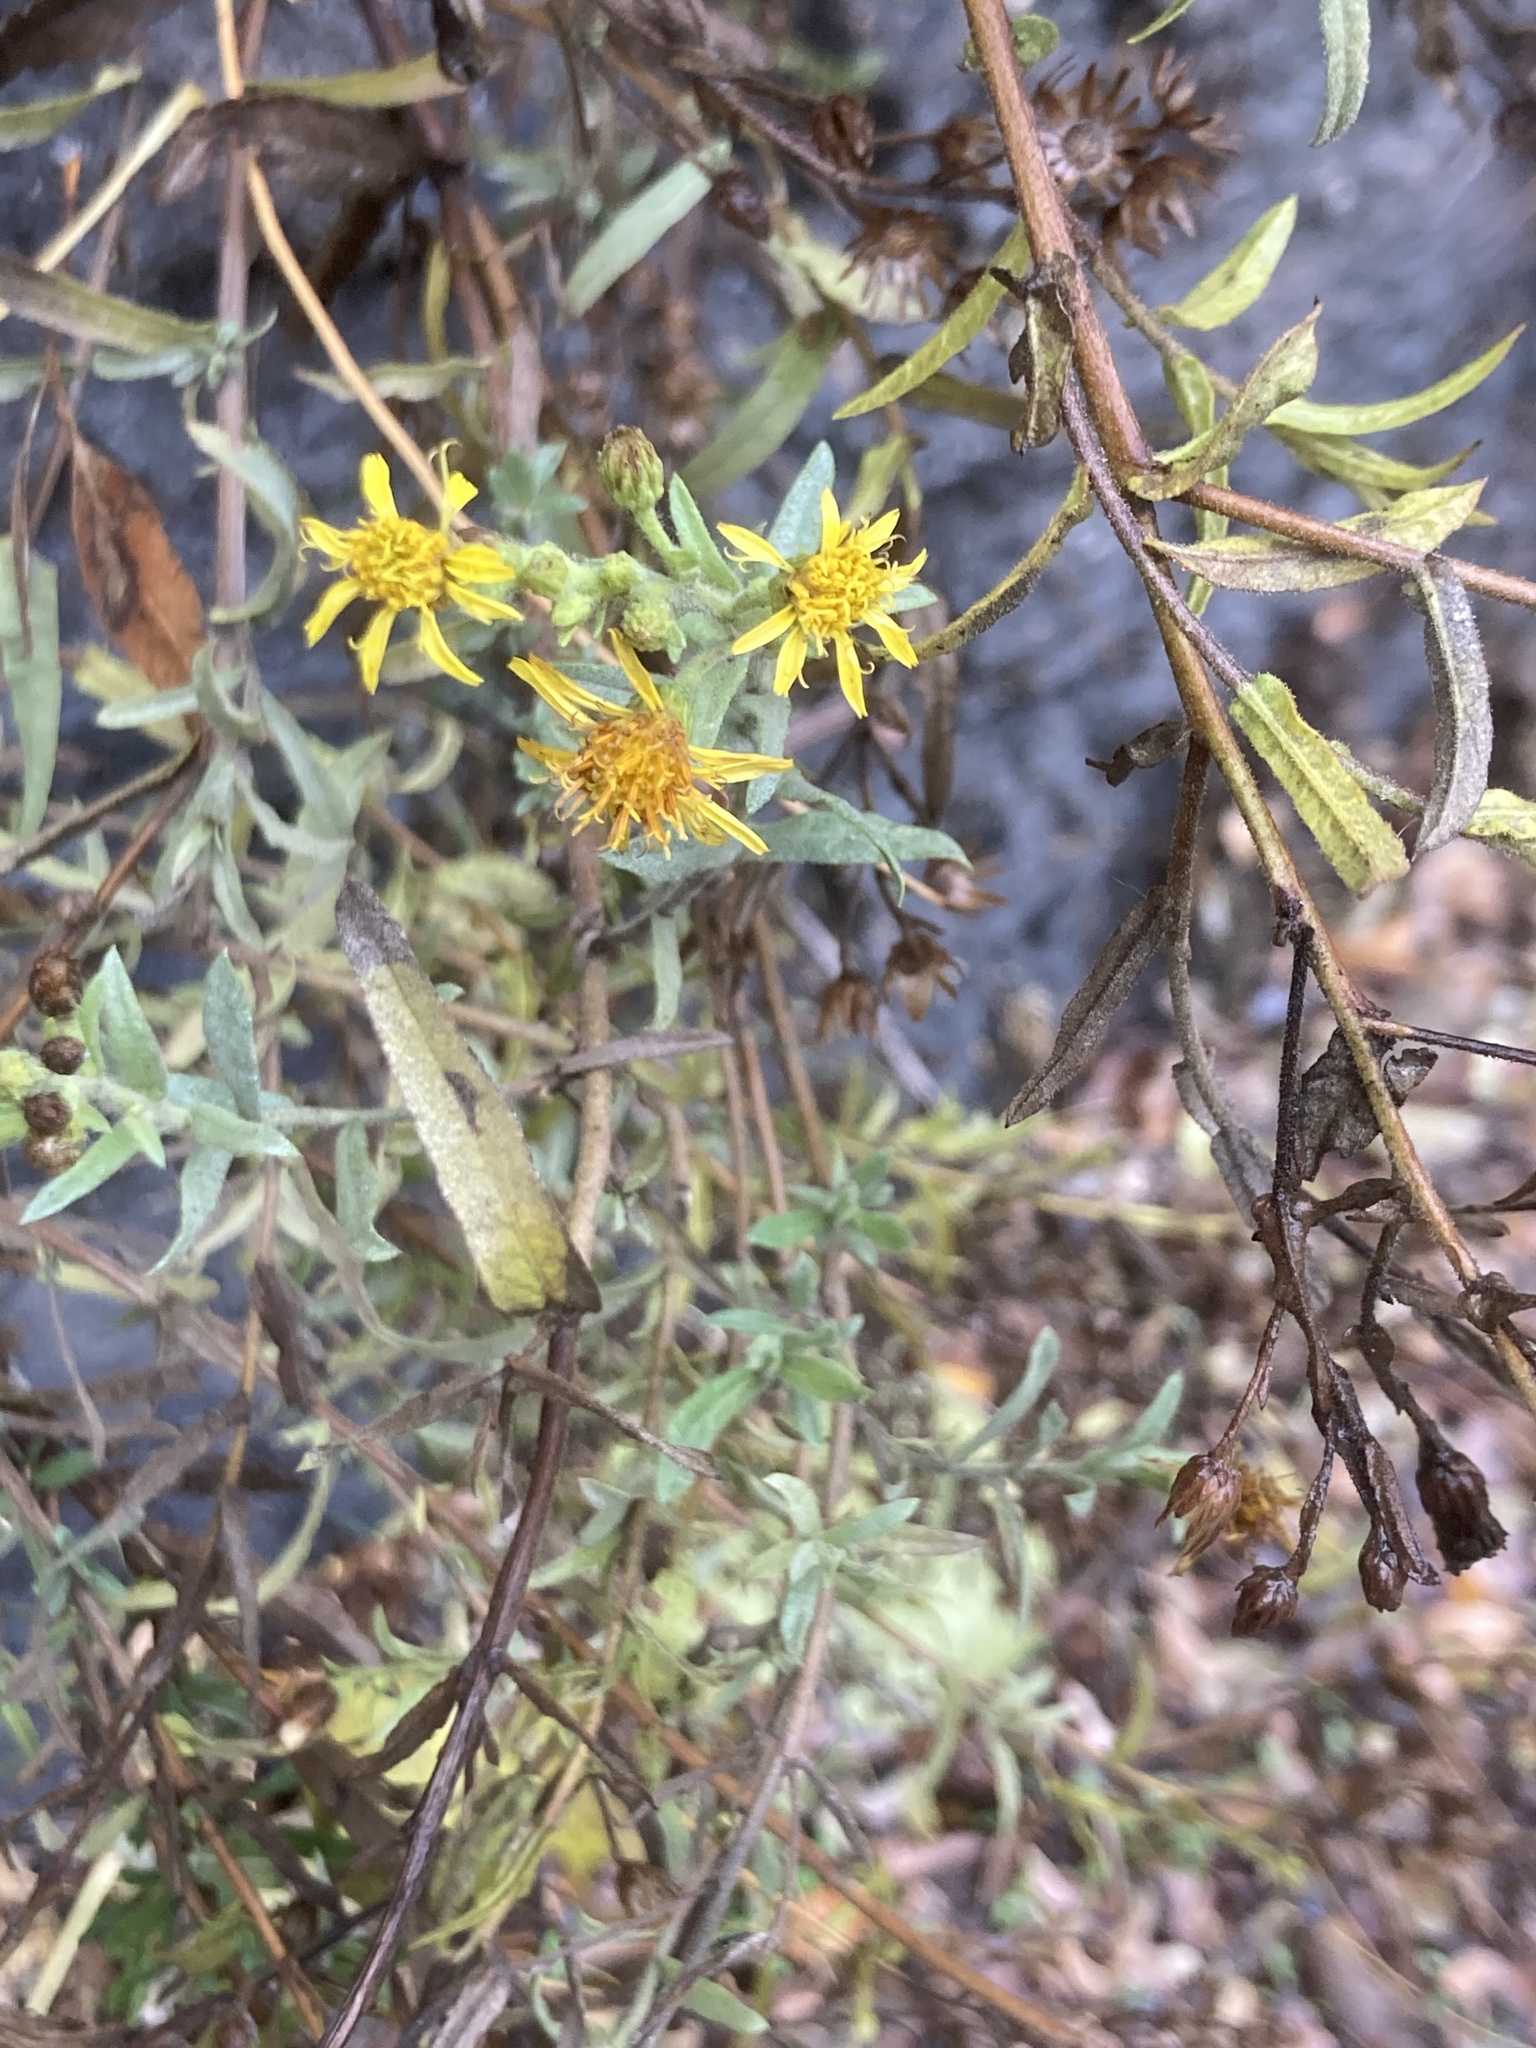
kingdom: Plantae
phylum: Tracheophyta
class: Magnoliopsida
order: Asterales
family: Asteraceae
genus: Dittrichia
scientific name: Dittrichia viscosa
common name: Woody fleabane
